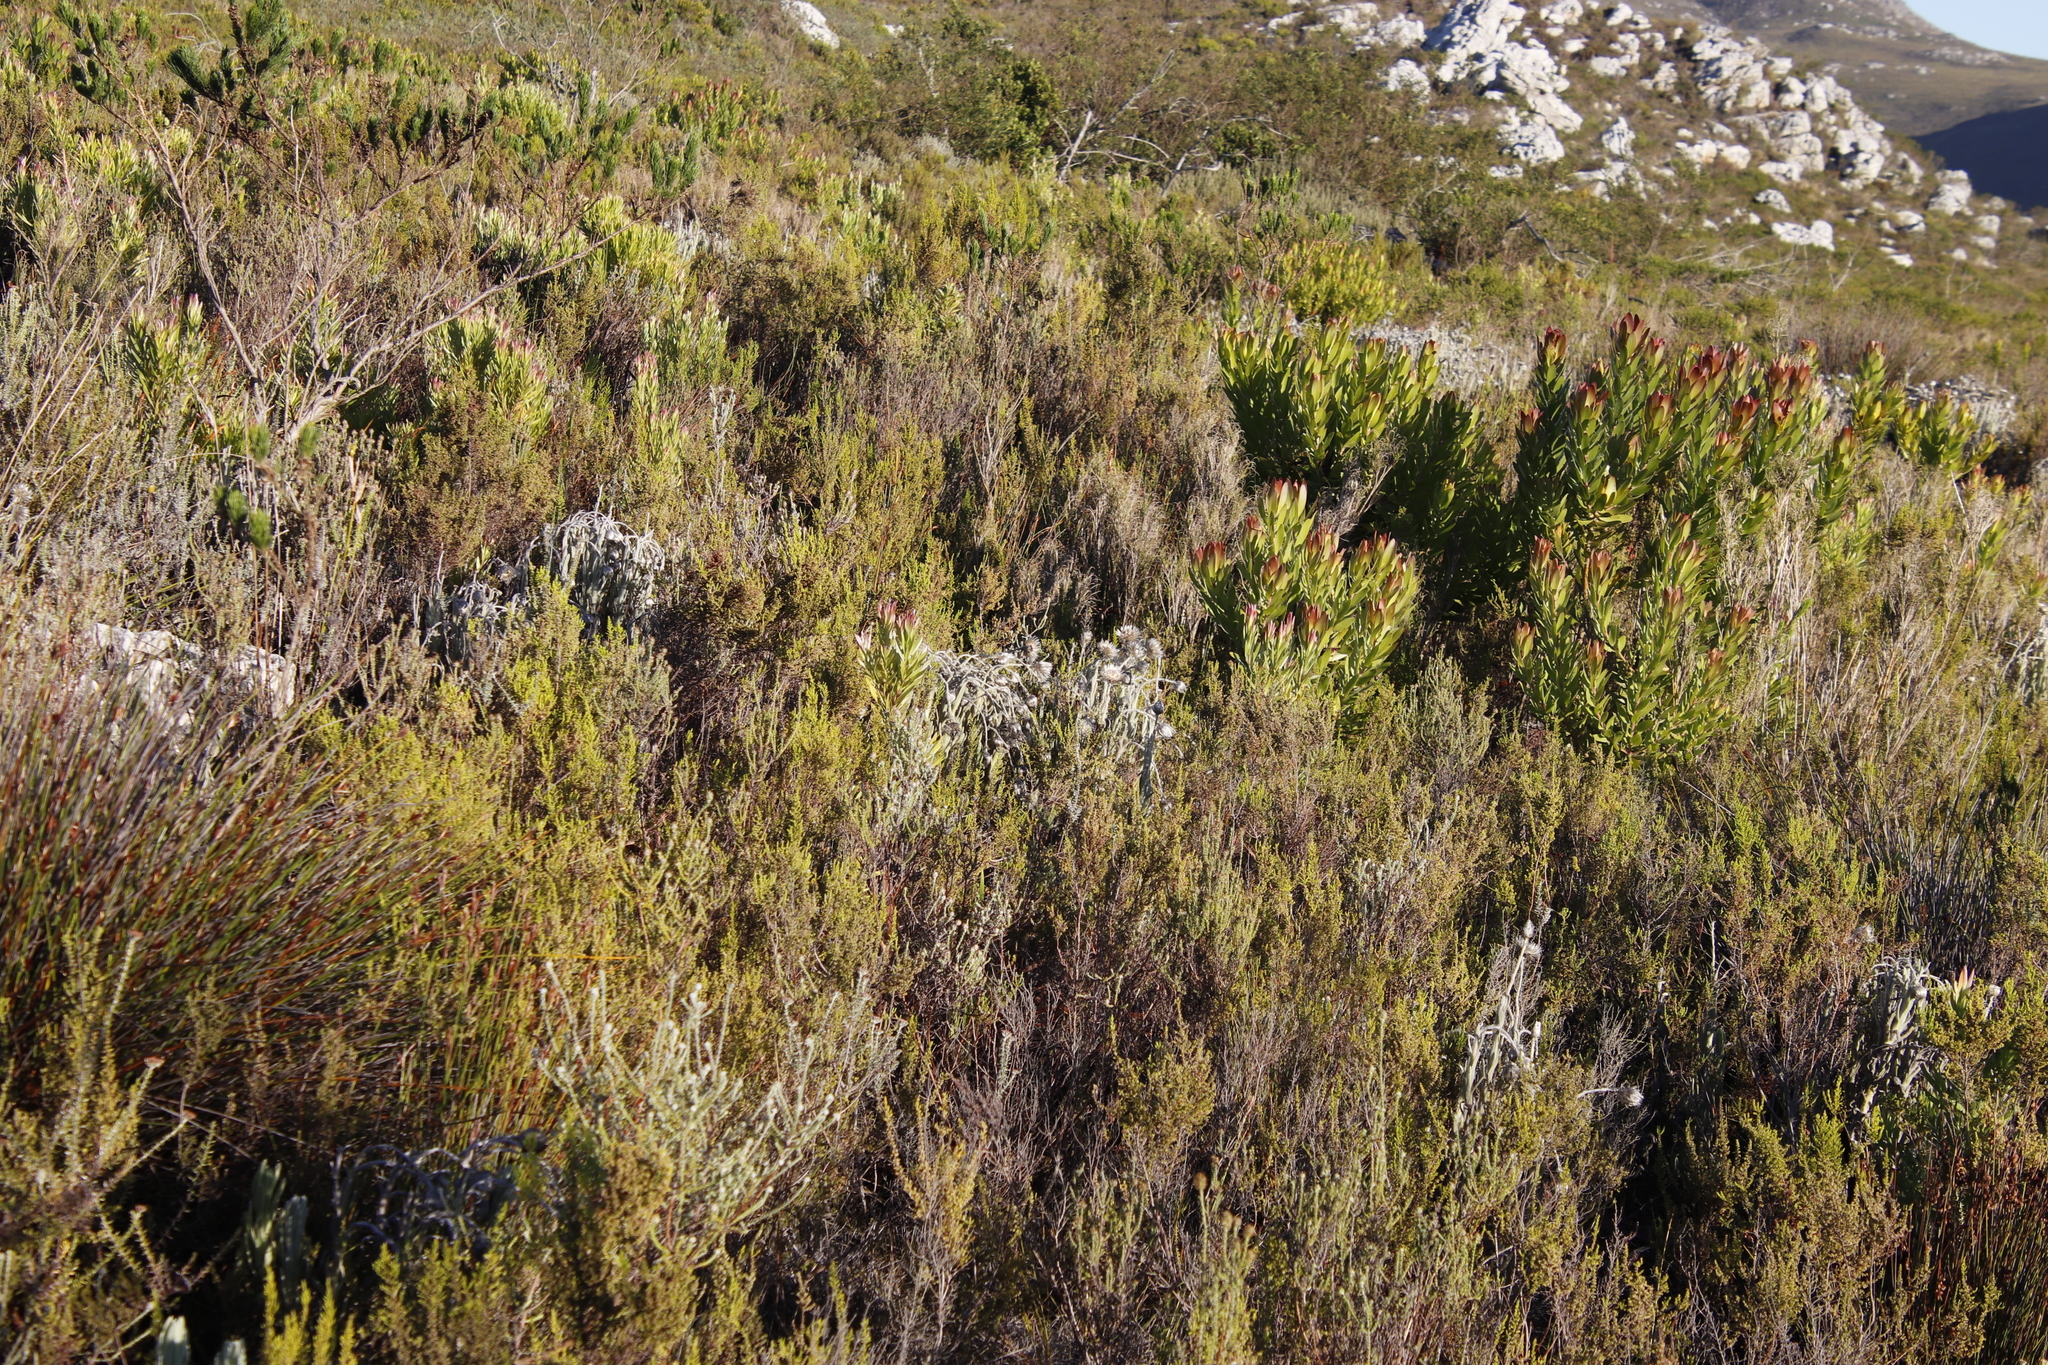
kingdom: Plantae
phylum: Tracheophyta
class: Magnoliopsida
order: Ericales
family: Ericaceae
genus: Erica
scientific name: Erica muscosa
